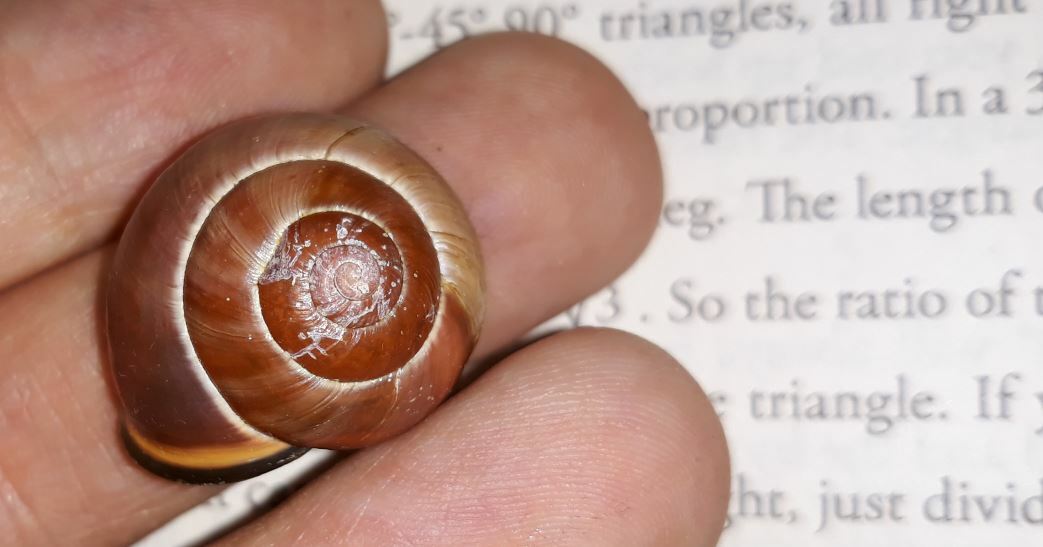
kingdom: Animalia
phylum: Mollusca
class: Gastropoda
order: Stylommatophora
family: Helicidae
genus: Cepaea
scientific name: Cepaea nemoralis
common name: Grovesnail
